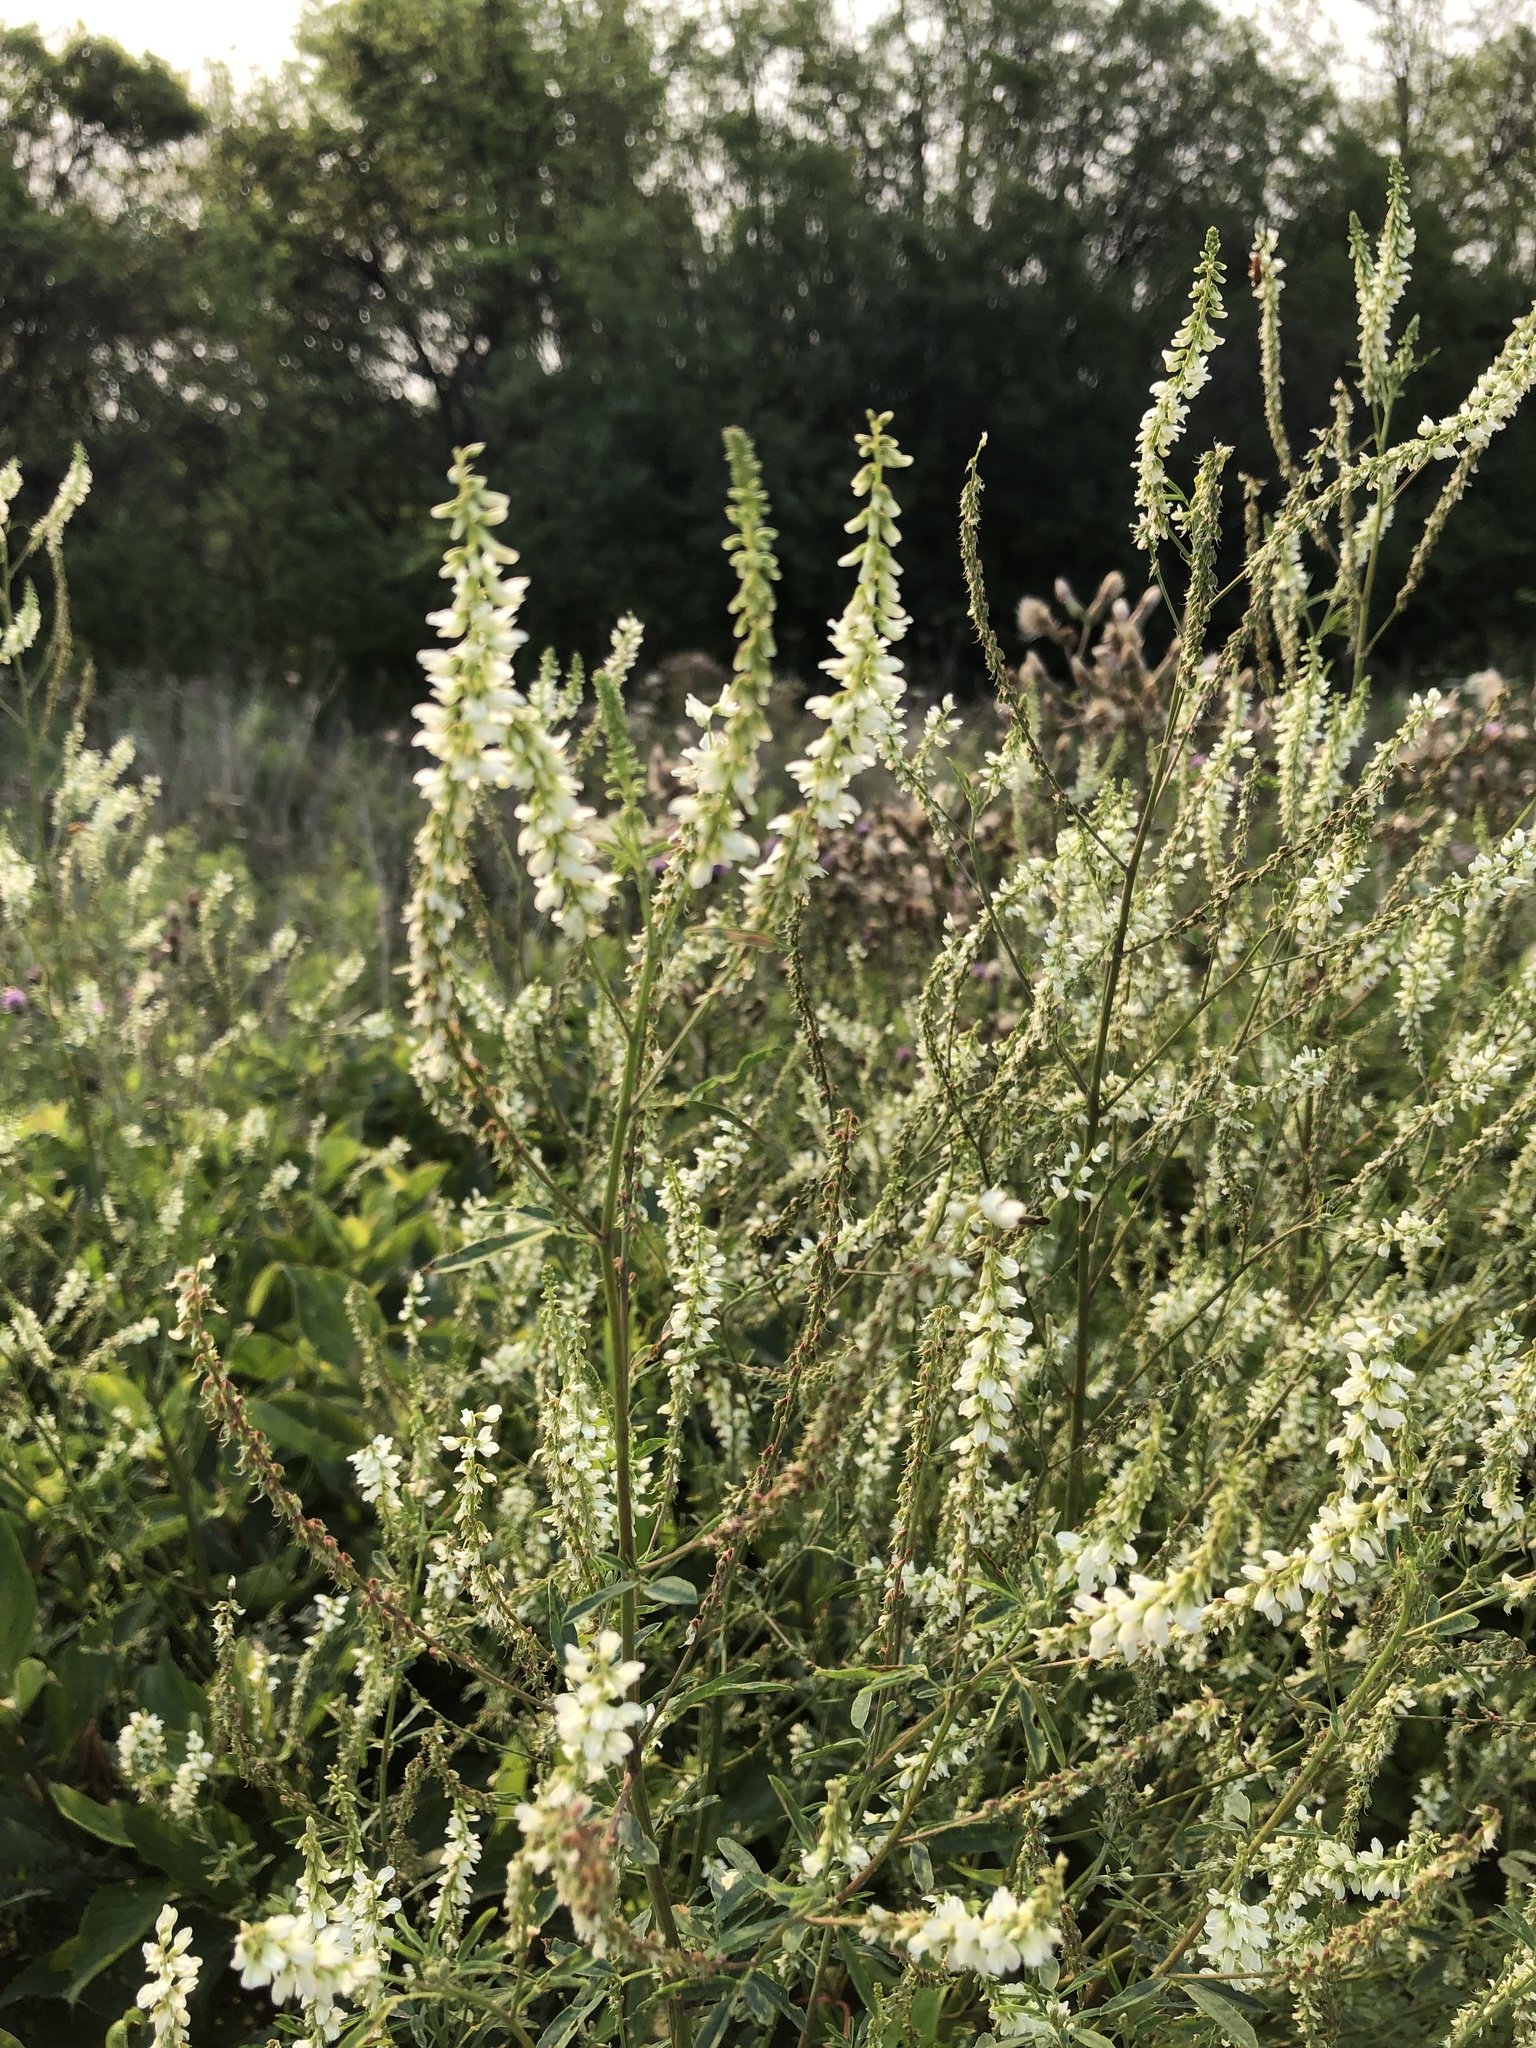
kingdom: Plantae
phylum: Tracheophyta
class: Magnoliopsida
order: Fabales
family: Fabaceae
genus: Melilotus
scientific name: Melilotus albus
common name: White melilot
